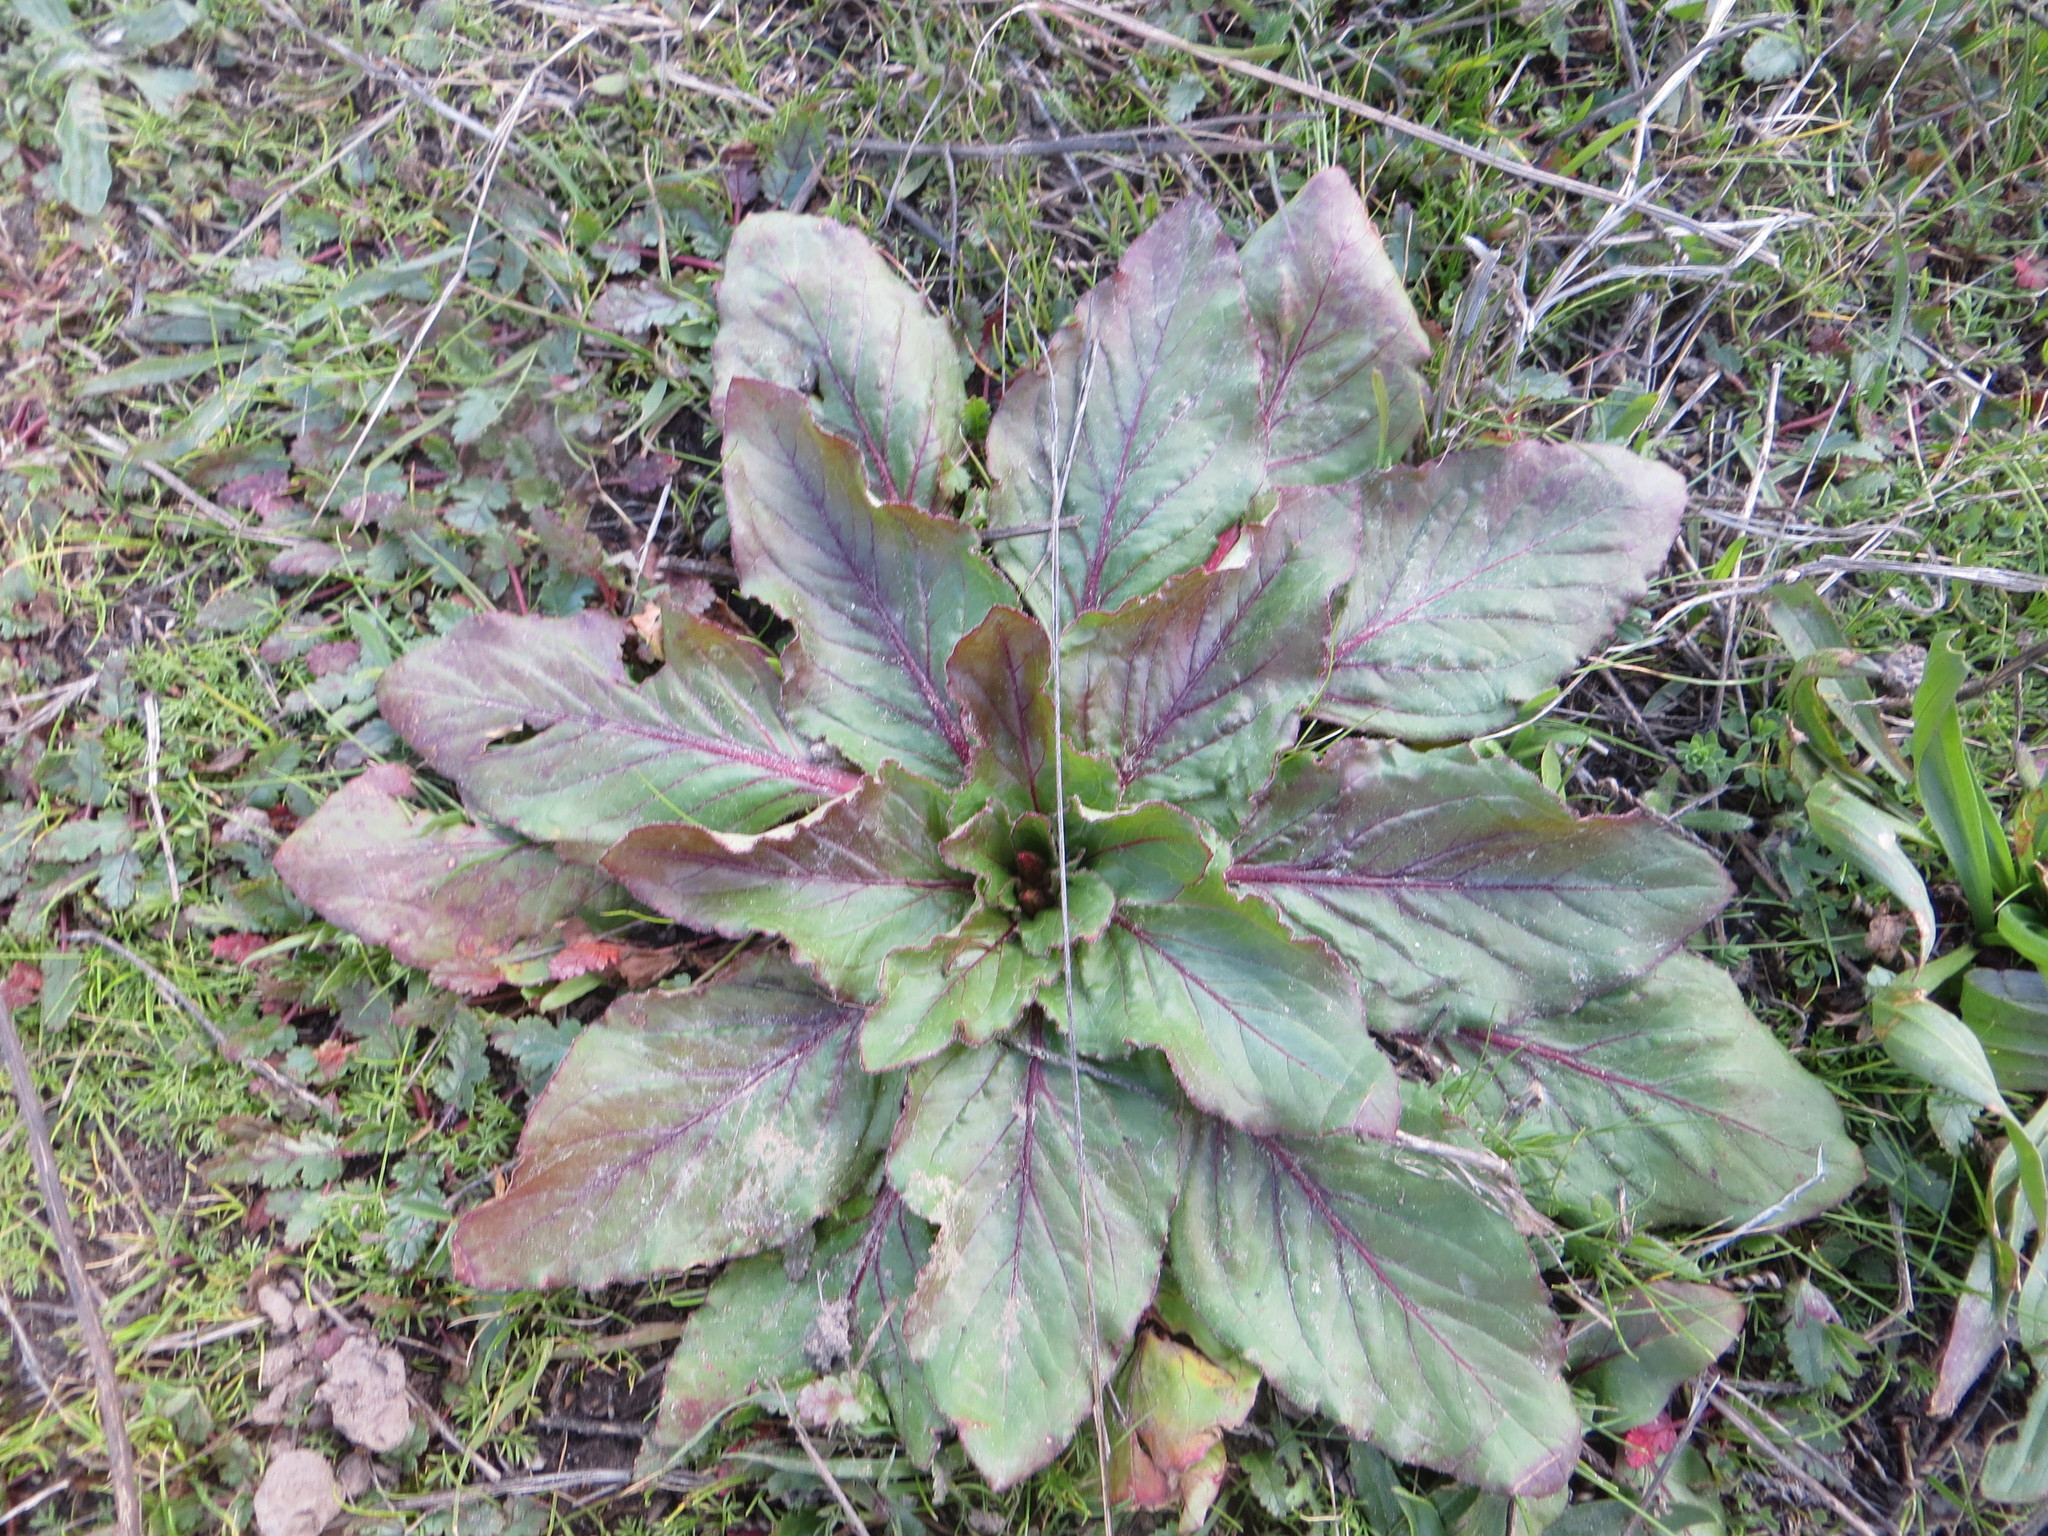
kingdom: Plantae
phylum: Tracheophyta
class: Magnoliopsida
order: Myrtales
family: Onagraceae
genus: Taraxia
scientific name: Taraxia ovata
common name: Goldeneggs
